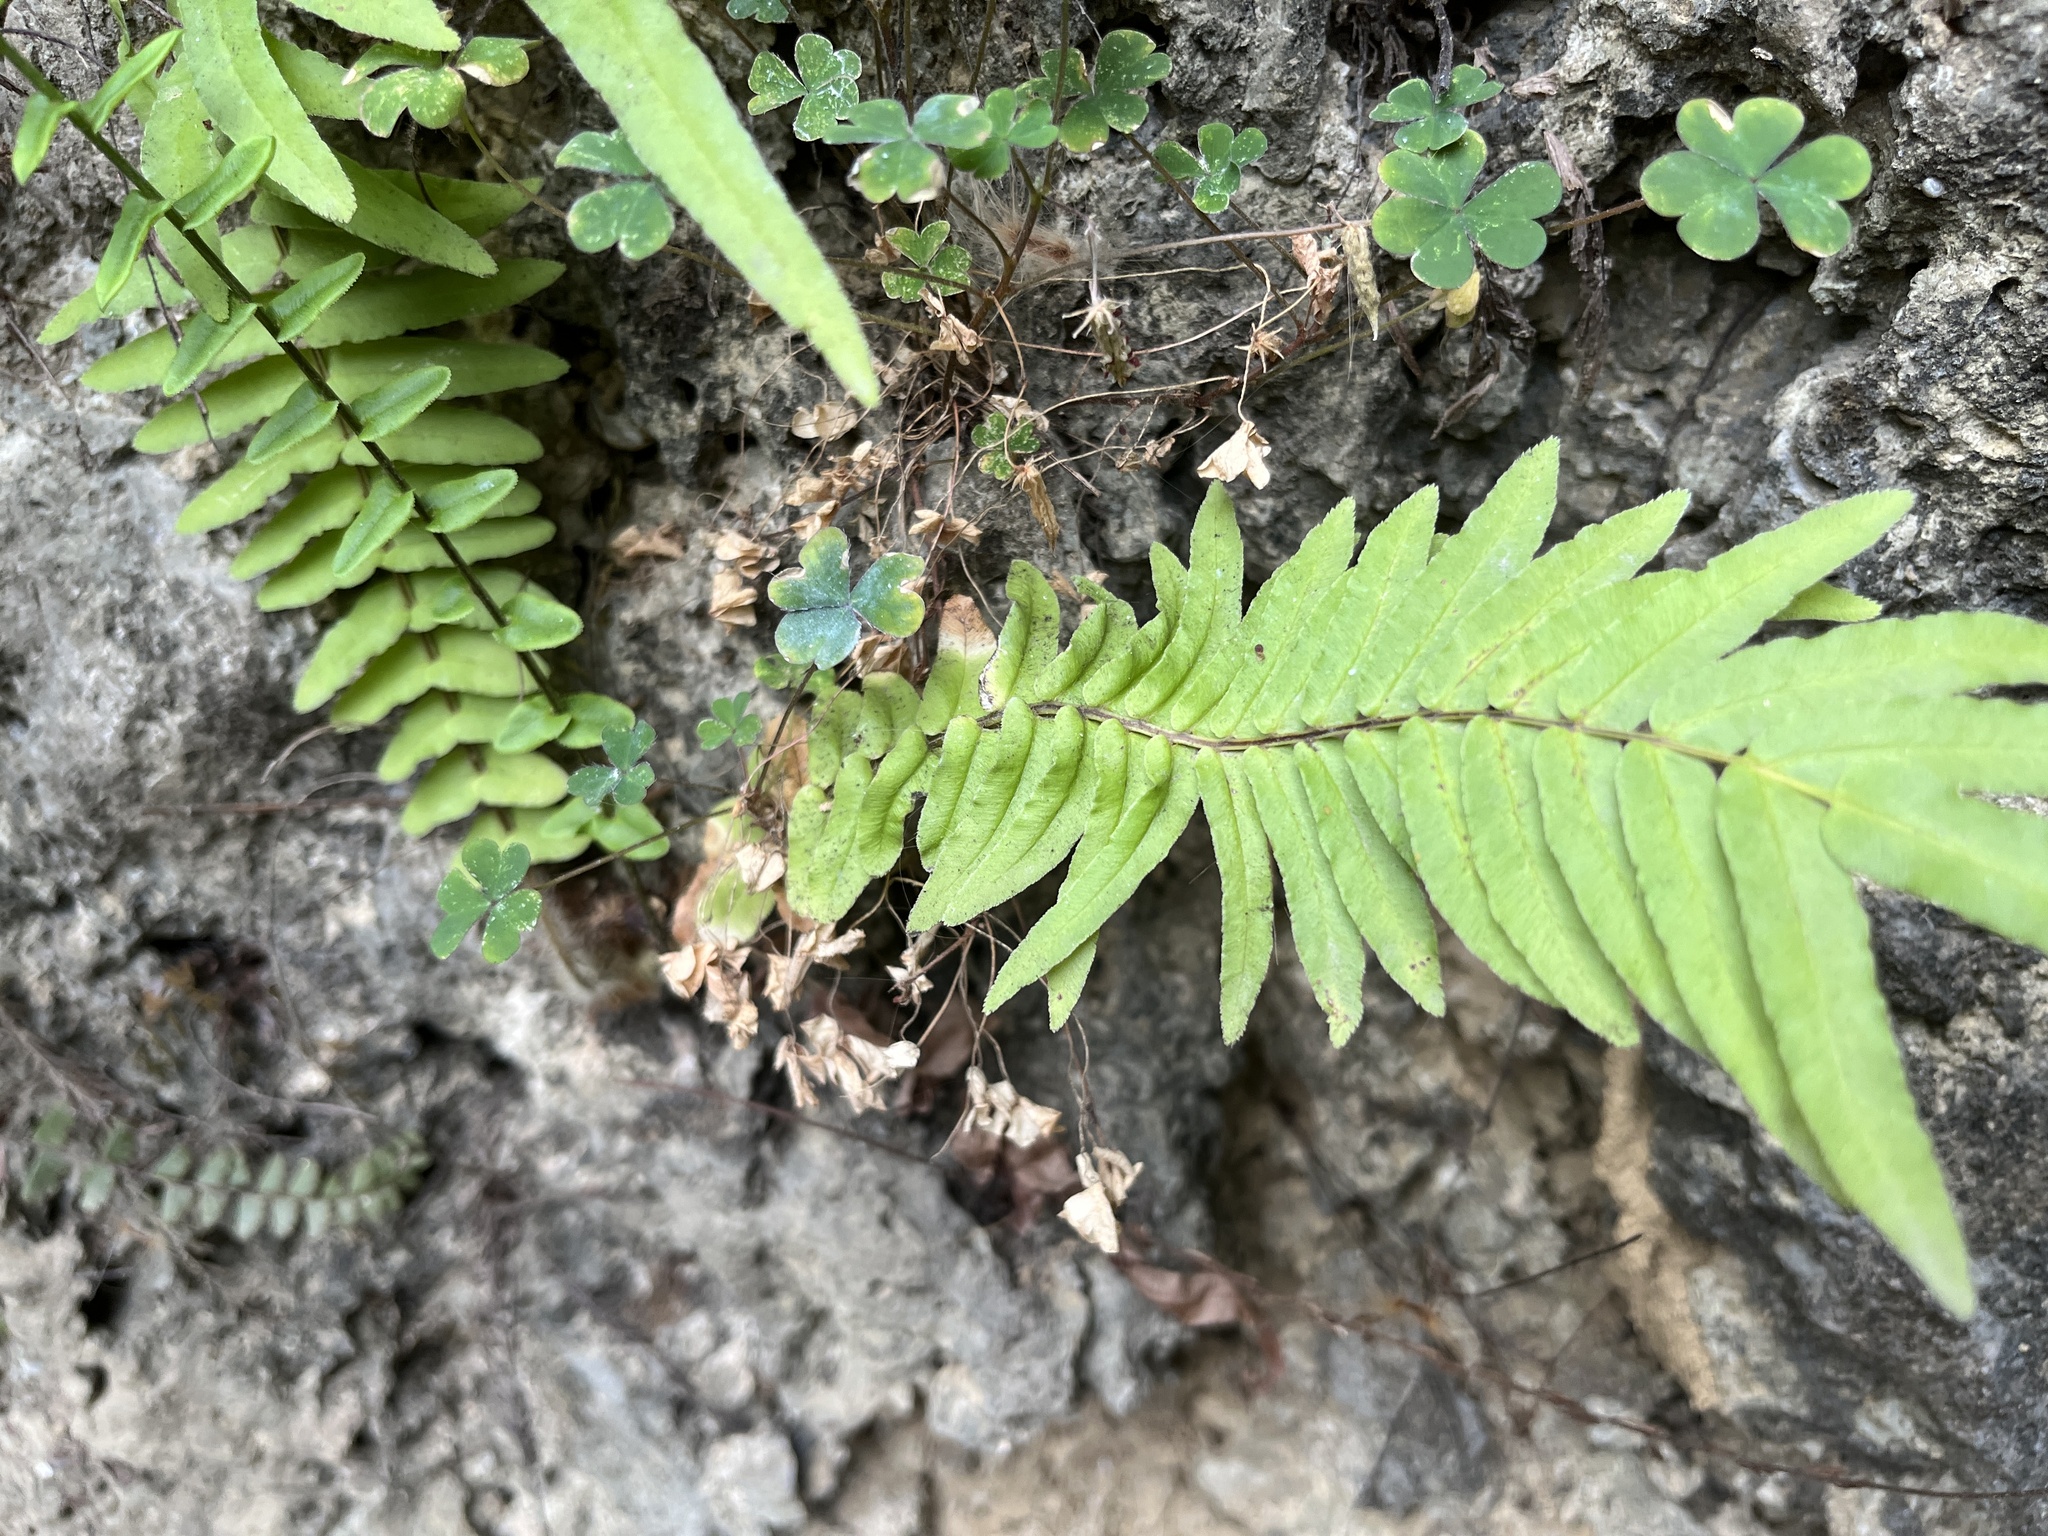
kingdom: Plantae
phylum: Tracheophyta
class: Polypodiopsida
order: Polypodiales
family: Pteridaceae
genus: Pteris
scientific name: Pteris vittata
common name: Ladder brake
